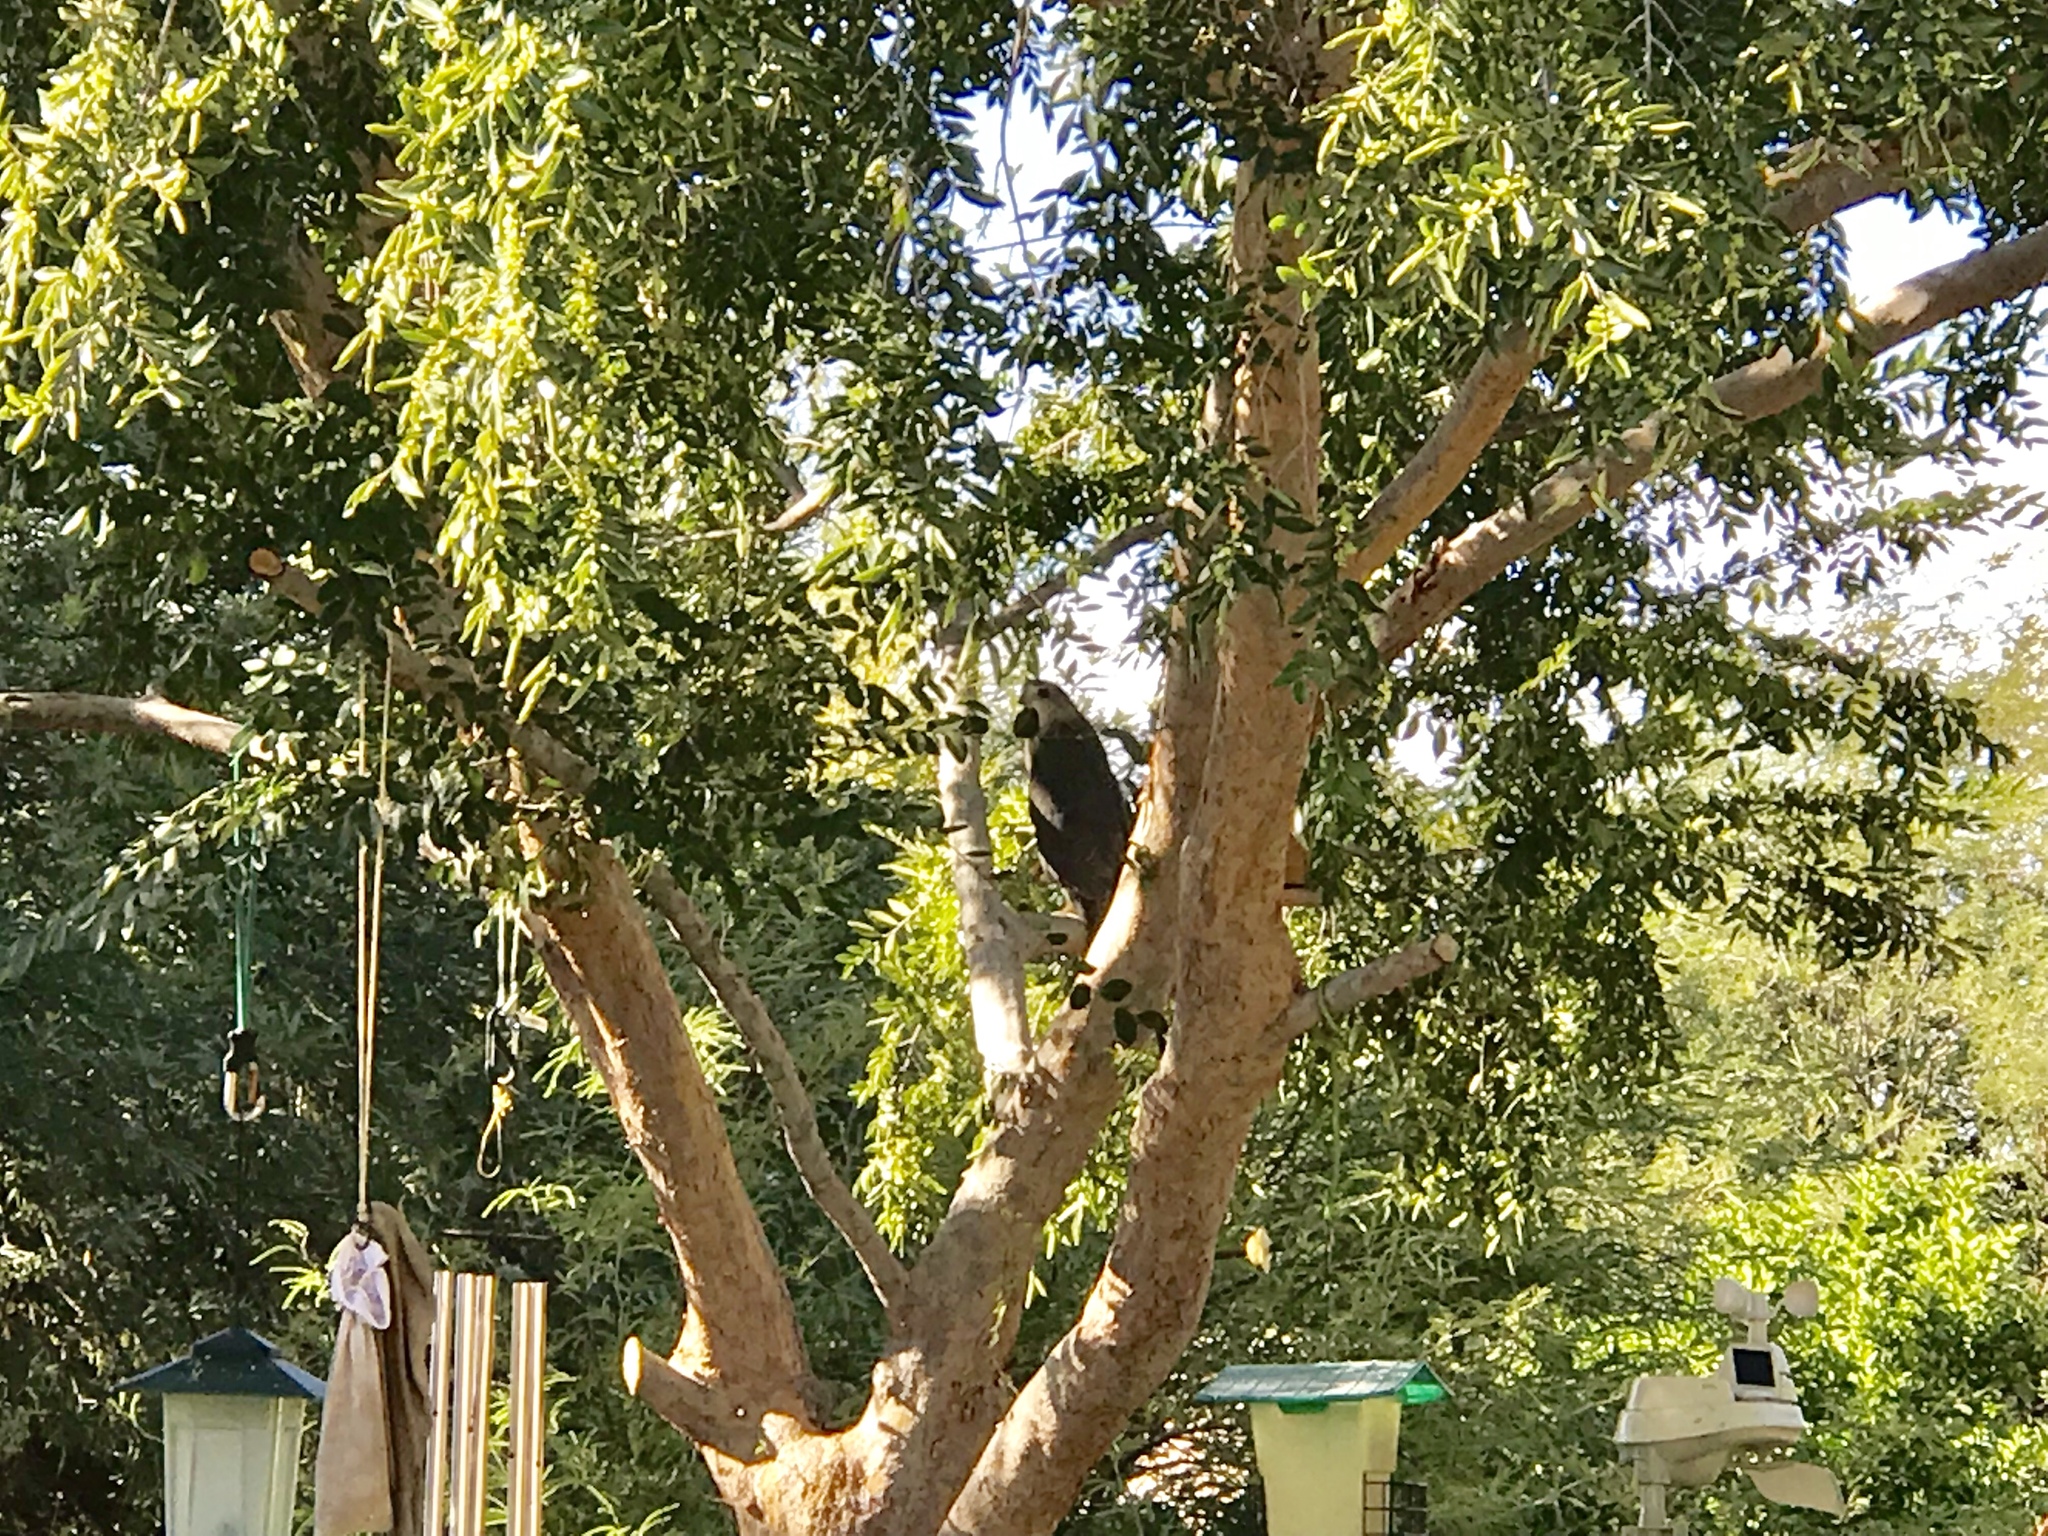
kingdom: Animalia
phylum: Chordata
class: Aves
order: Accipitriformes
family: Accipitridae
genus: Accipiter
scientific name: Accipiter cooperii
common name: Cooper's hawk
